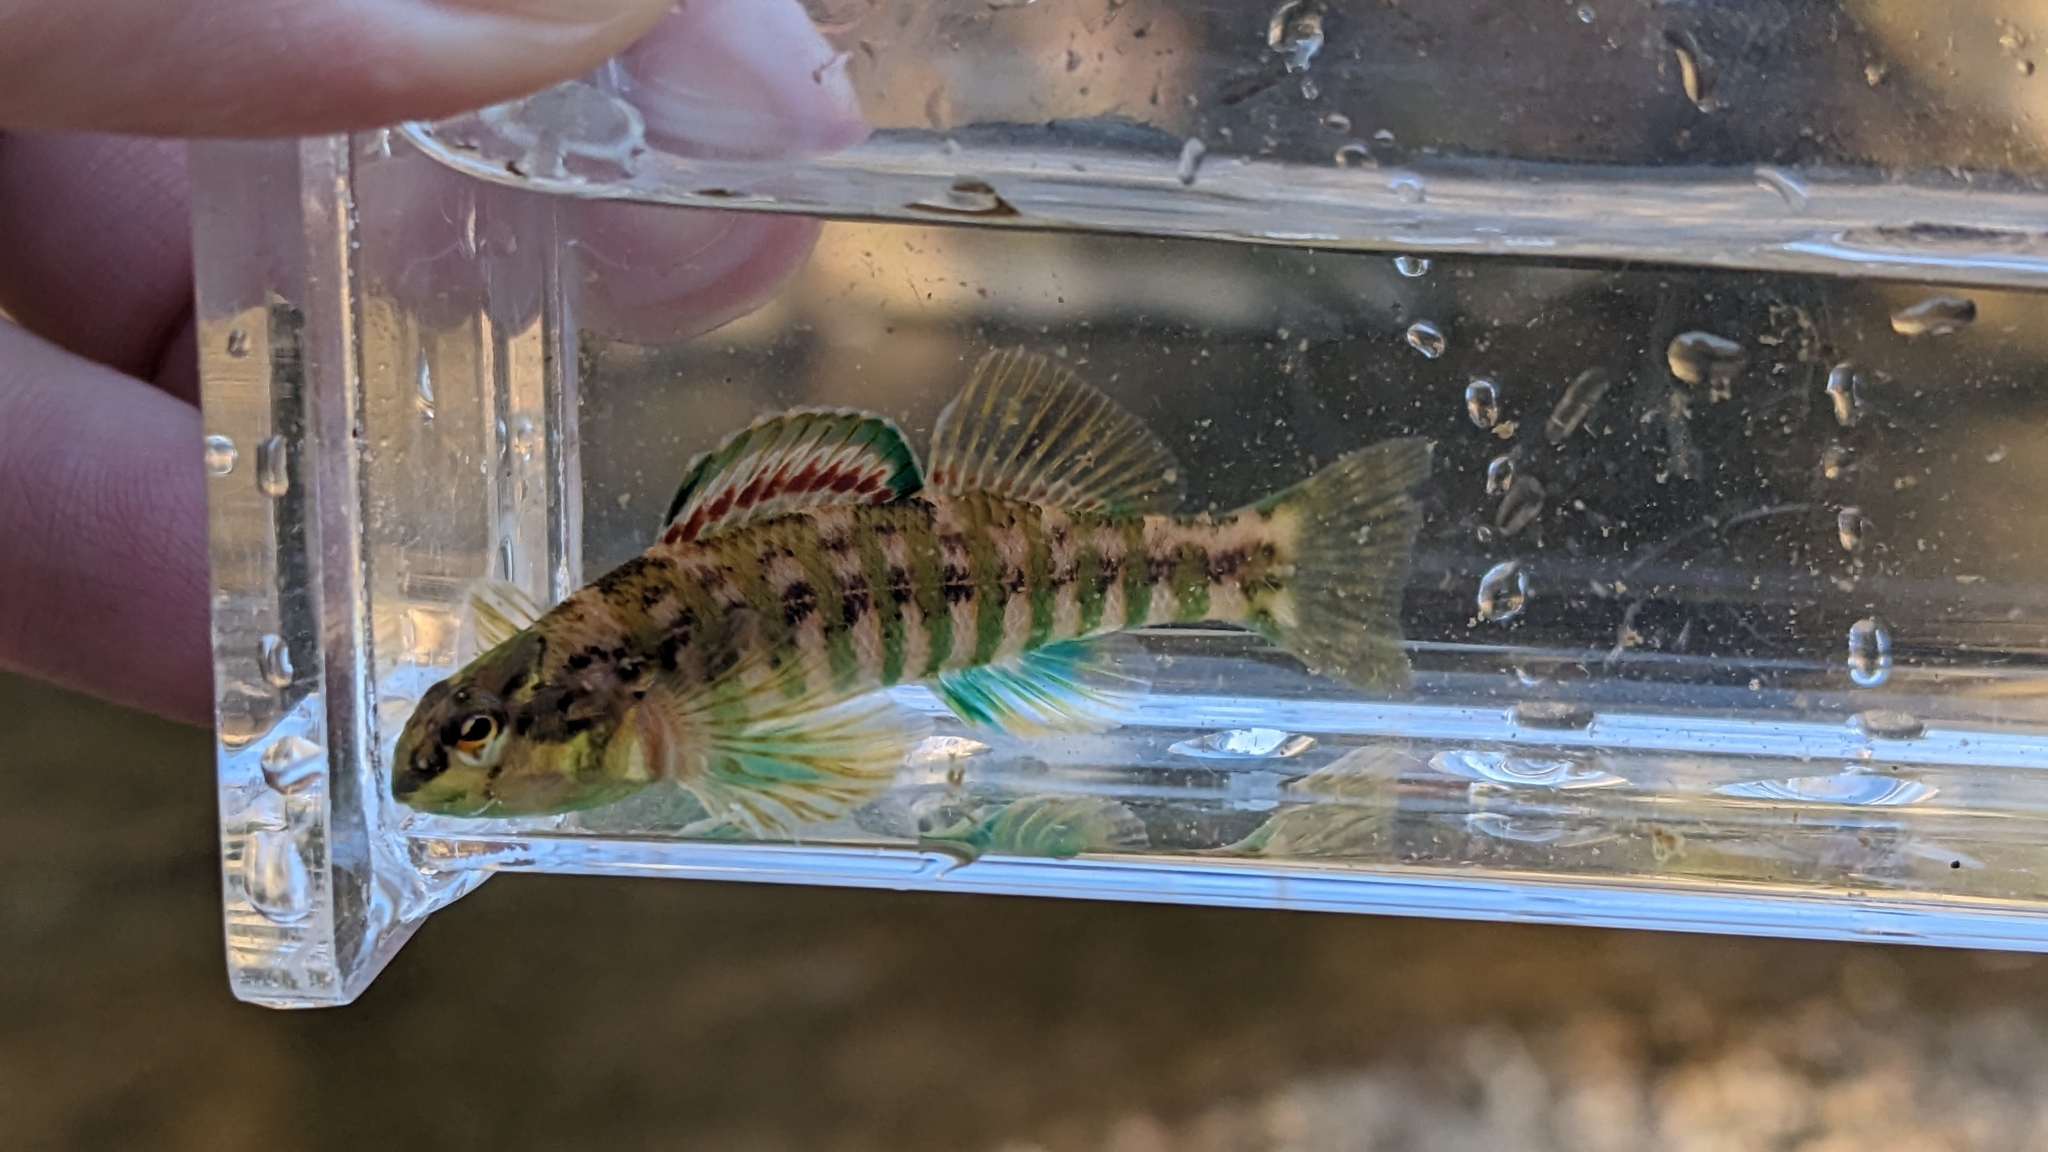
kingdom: Animalia
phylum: Chordata
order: Perciformes
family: Percidae
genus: Etheostoma
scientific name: Etheostoma zonale
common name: Banded darter
